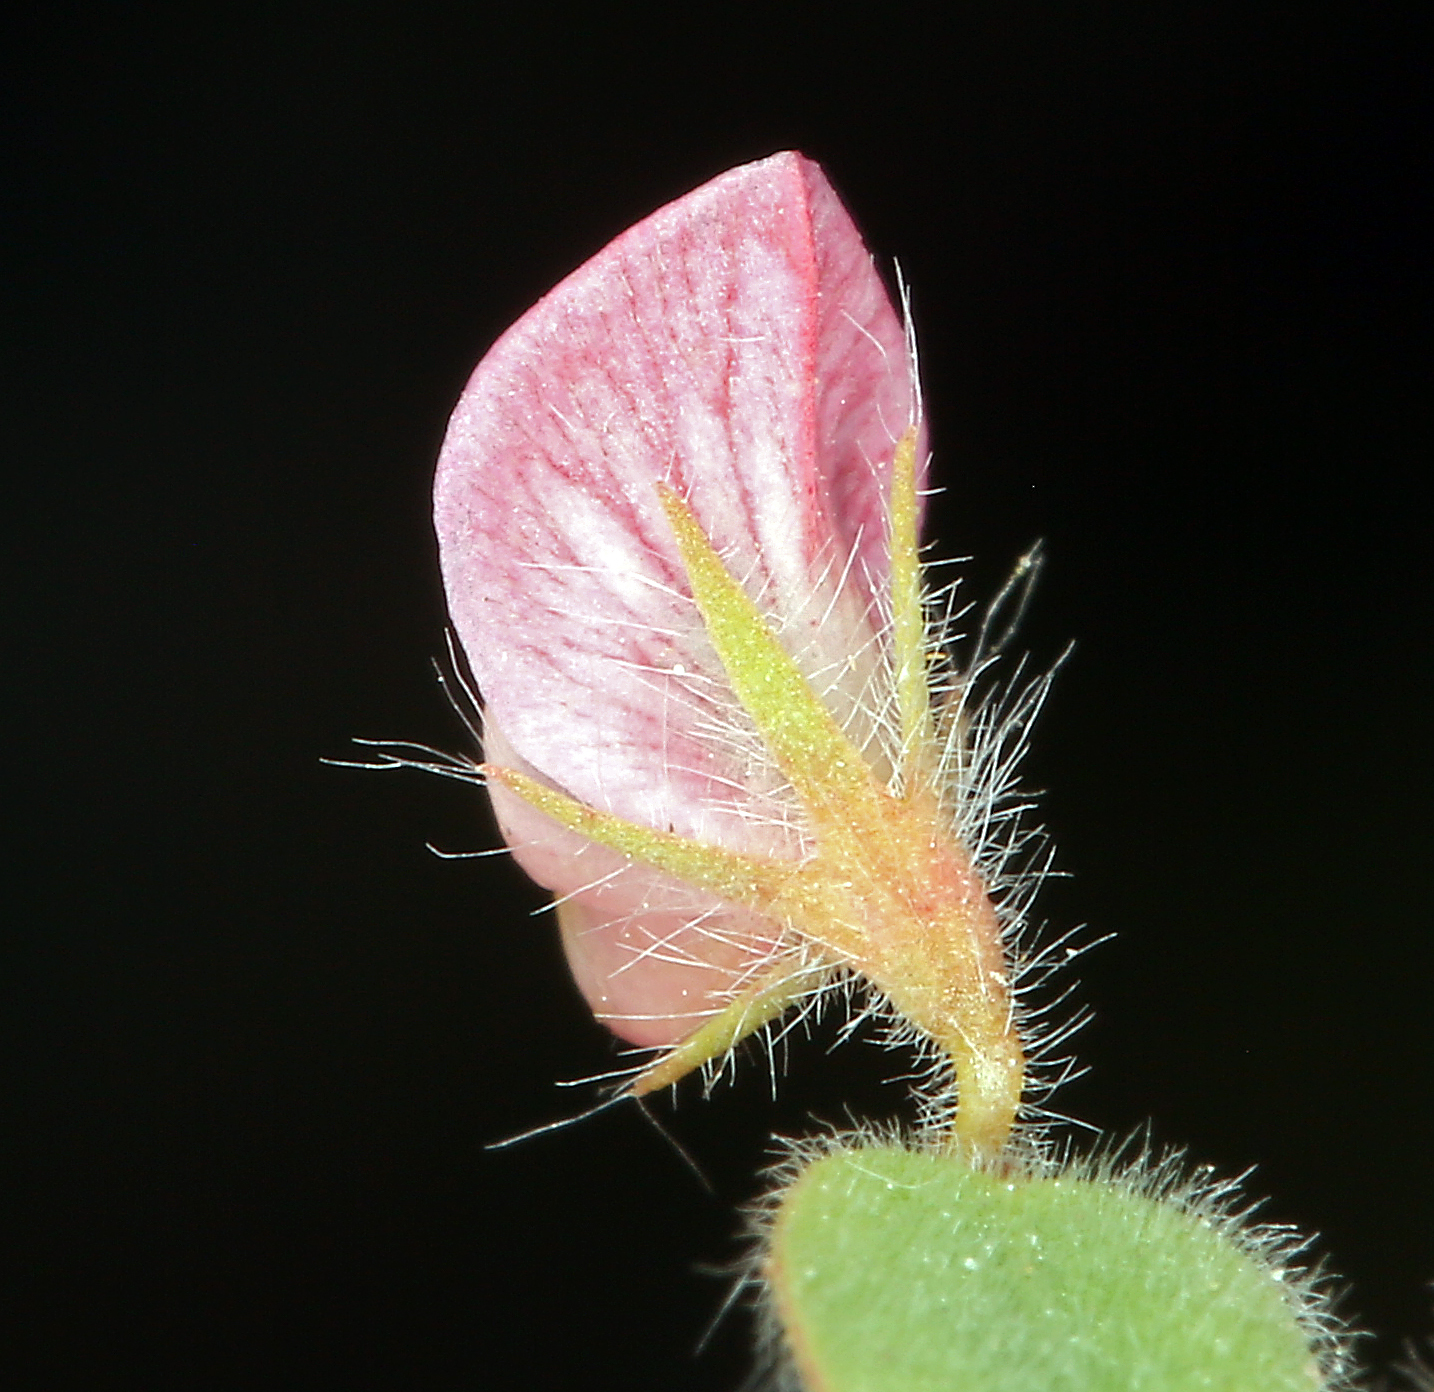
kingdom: Plantae
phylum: Tracheophyta
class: Magnoliopsida
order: Fabales
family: Fabaceae
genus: Acmispon
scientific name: Acmispon americanus
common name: American bird's-foot trefoil
